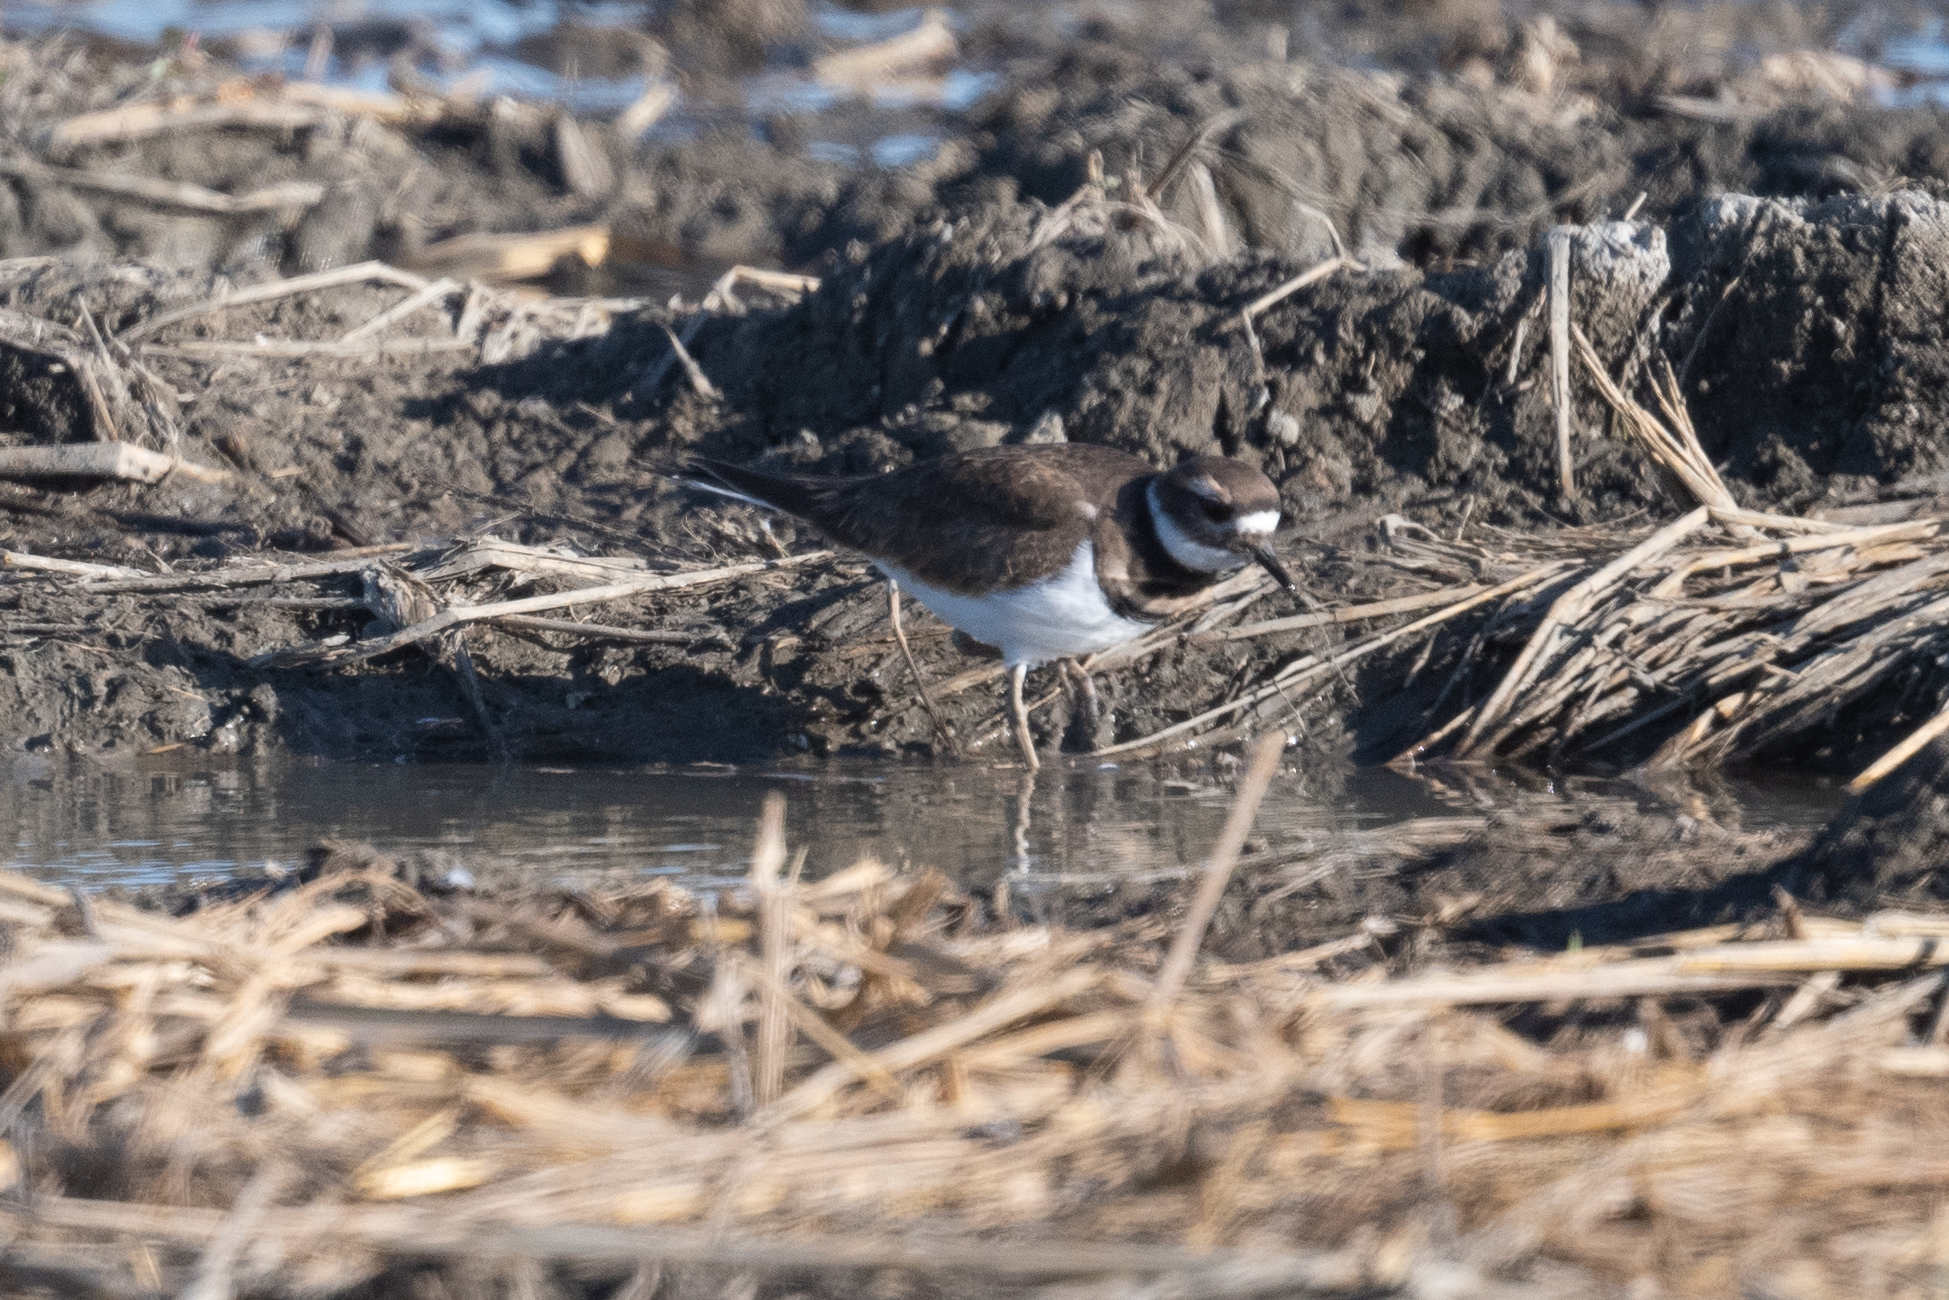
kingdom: Animalia
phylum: Chordata
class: Aves
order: Charadriiformes
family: Charadriidae
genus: Charadrius
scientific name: Charadrius vociferus
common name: Killdeer
